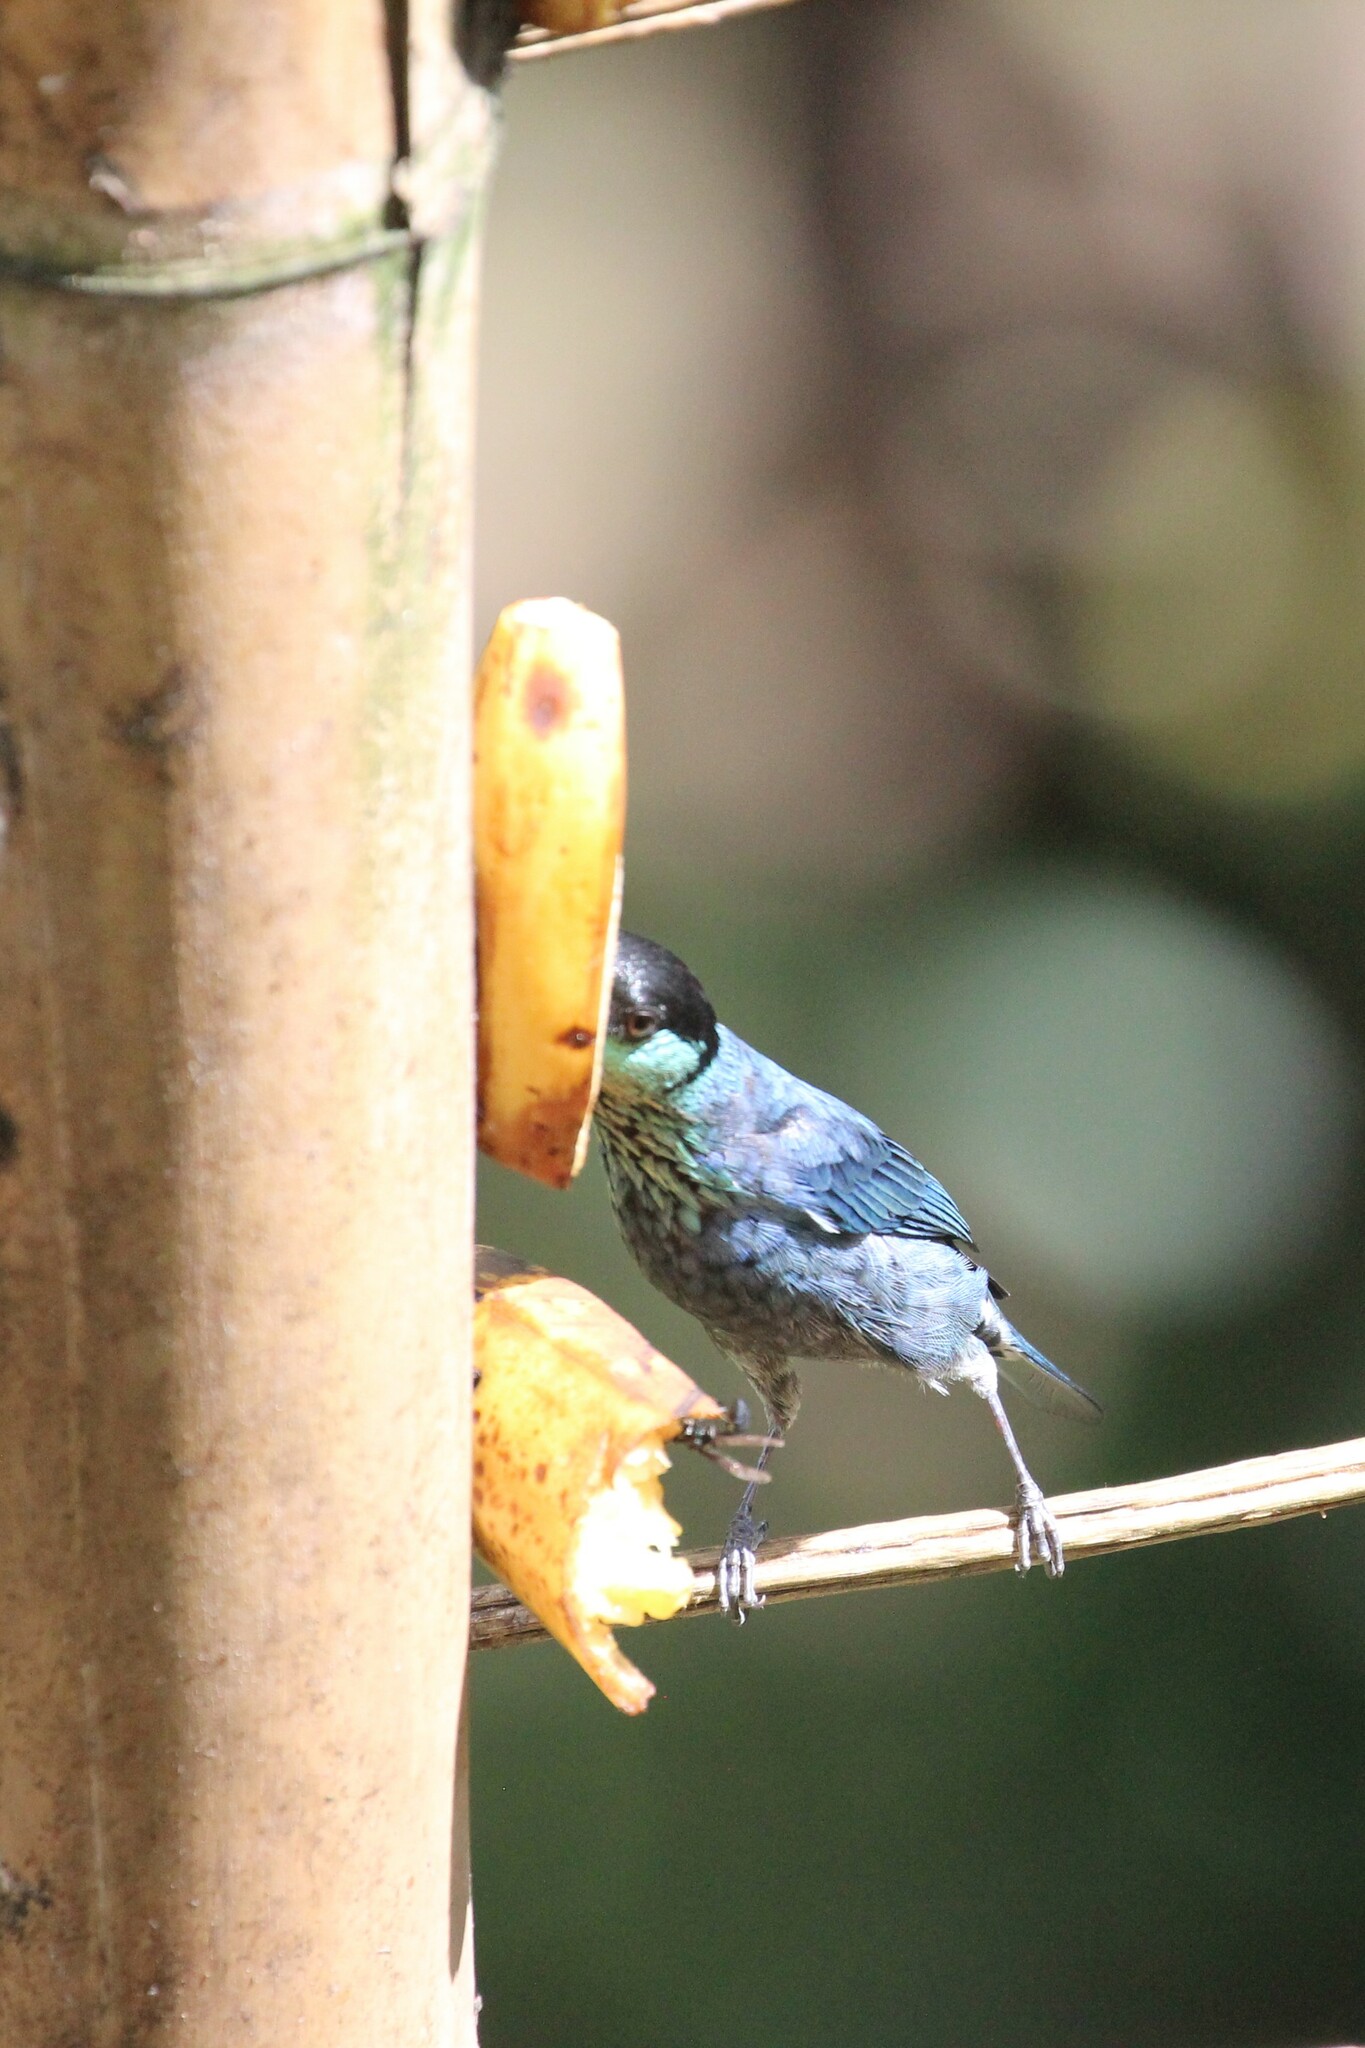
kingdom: Animalia
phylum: Chordata
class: Aves
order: Passeriformes
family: Thraupidae
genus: Stilpnia
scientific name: Stilpnia heinei
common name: Black-capped tanager
